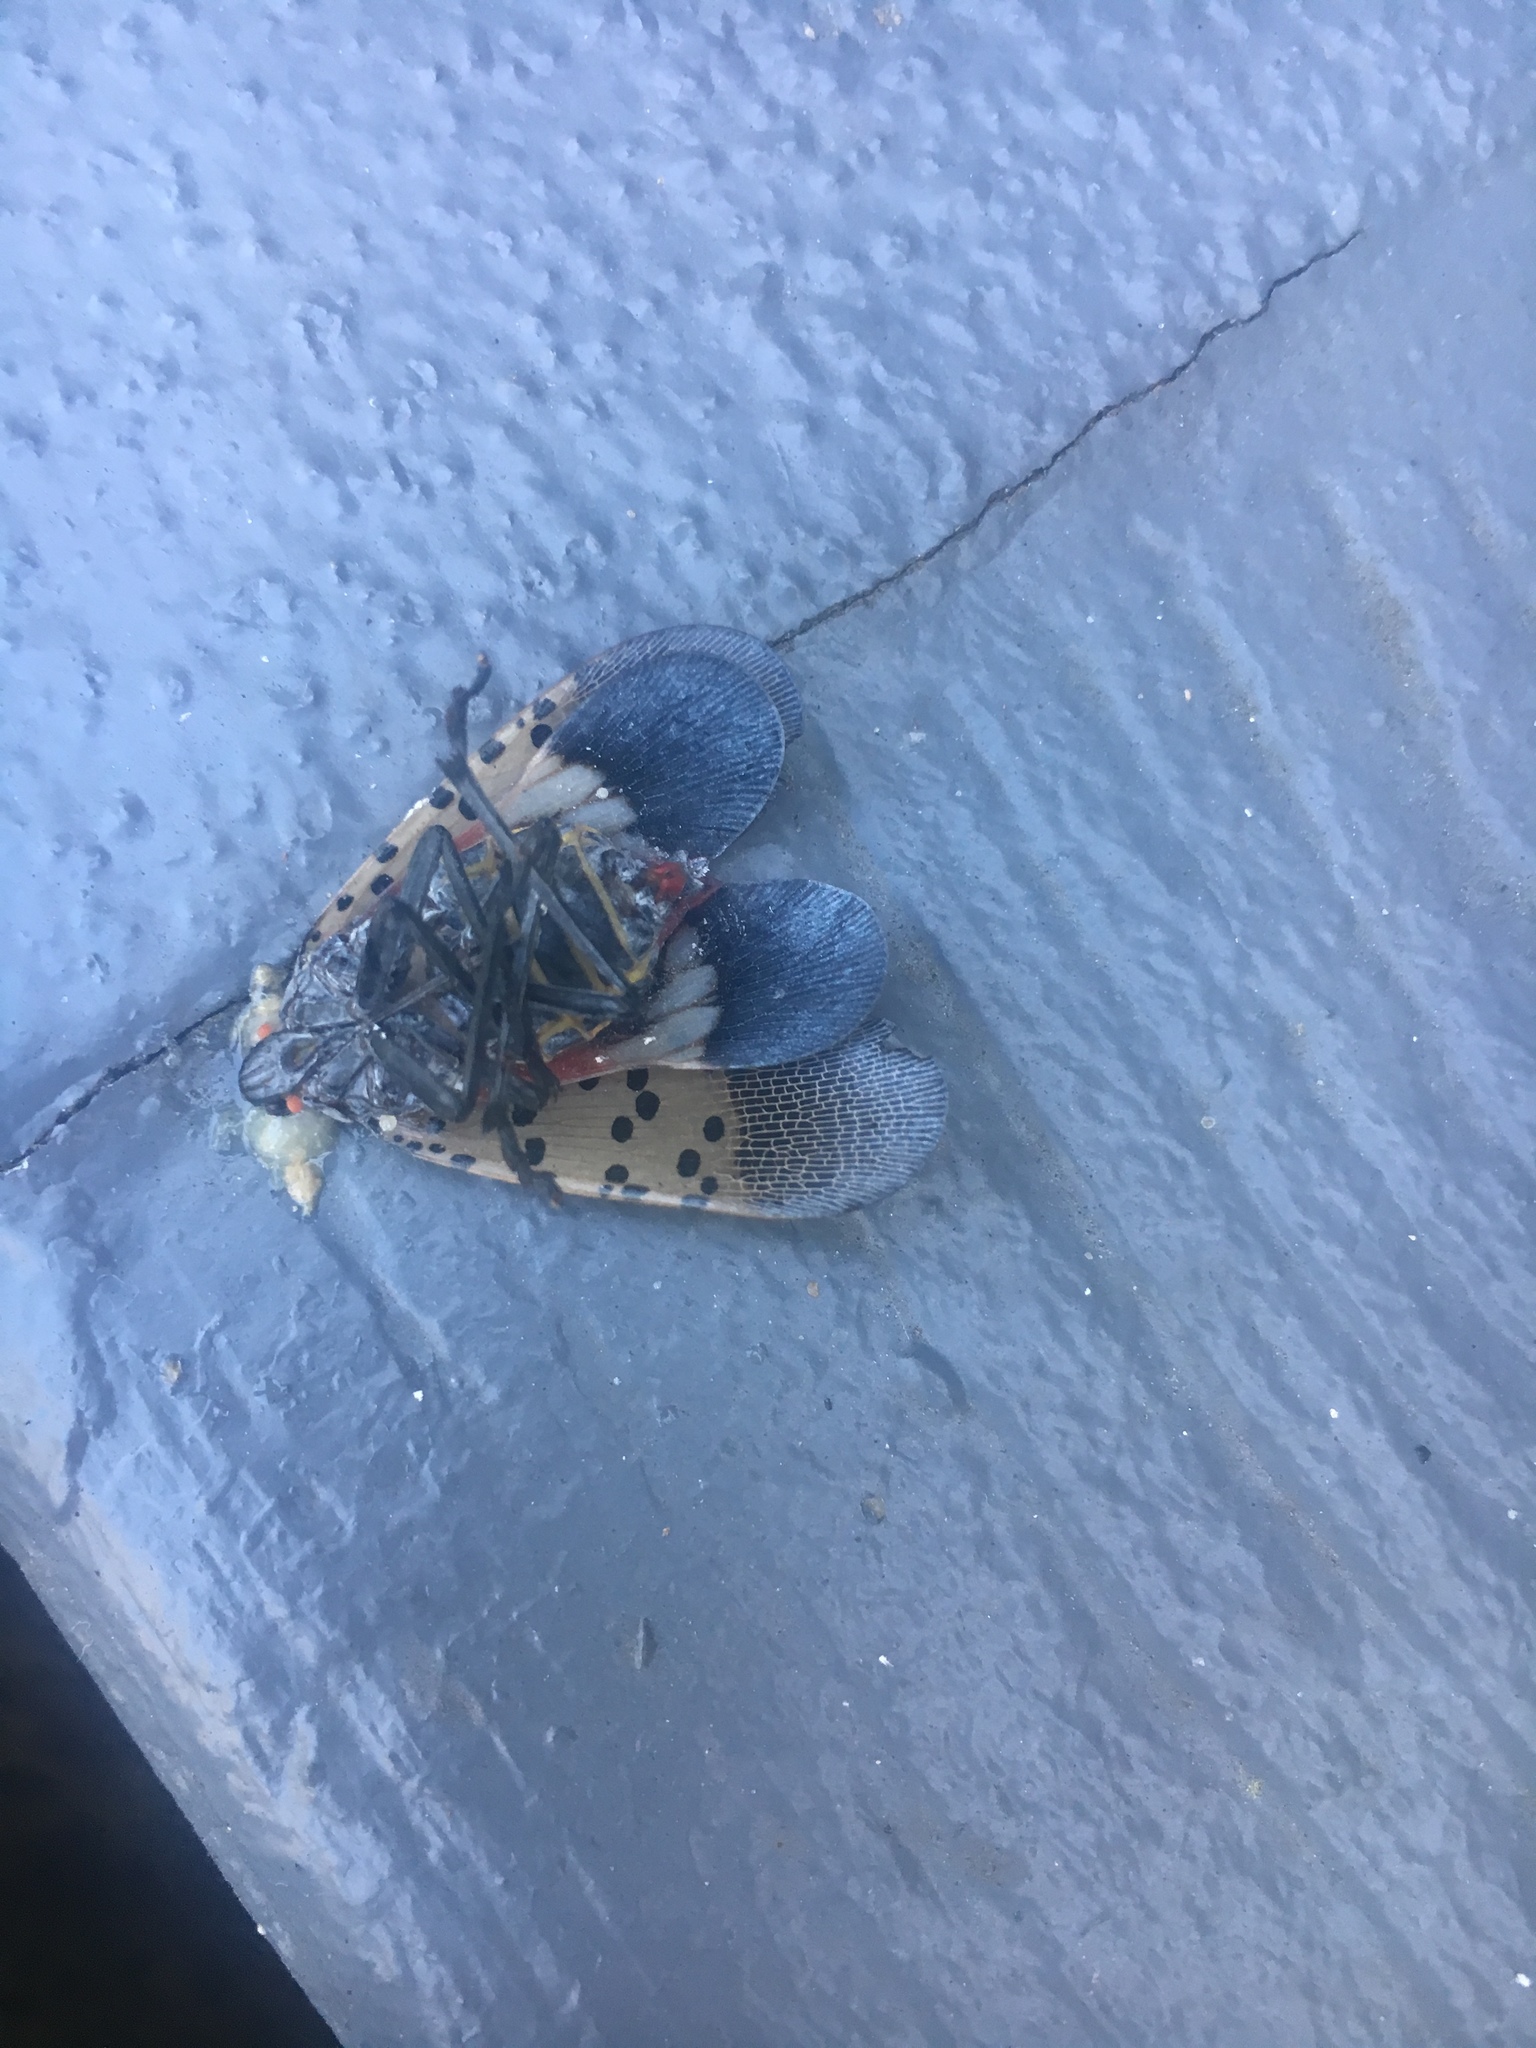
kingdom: Animalia
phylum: Arthropoda
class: Insecta
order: Hemiptera
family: Fulgoridae
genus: Lycorma
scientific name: Lycorma delicatula
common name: Spotted lanternfly
